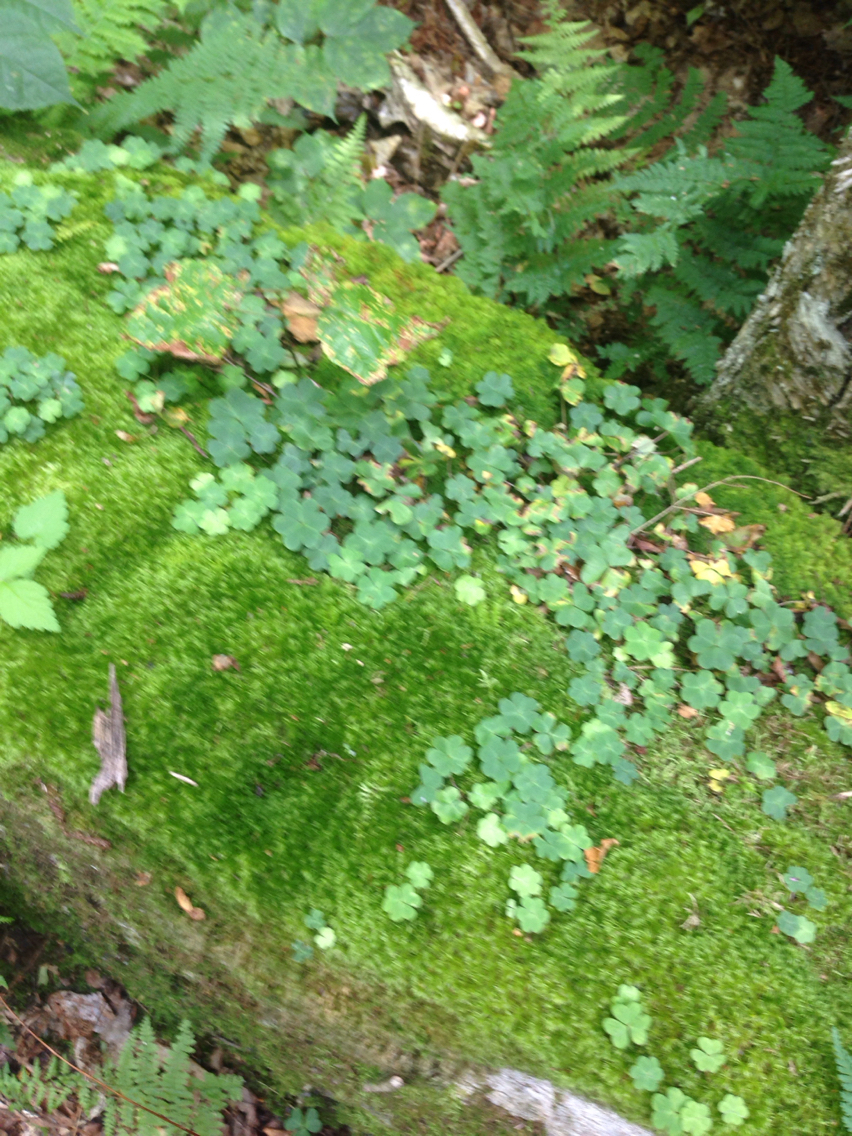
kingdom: Plantae
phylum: Tracheophyta
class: Magnoliopsida
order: Oxalidales
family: Oxalidaceae
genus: Oxalis
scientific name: Oxalis montana
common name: American wood-sorrel
